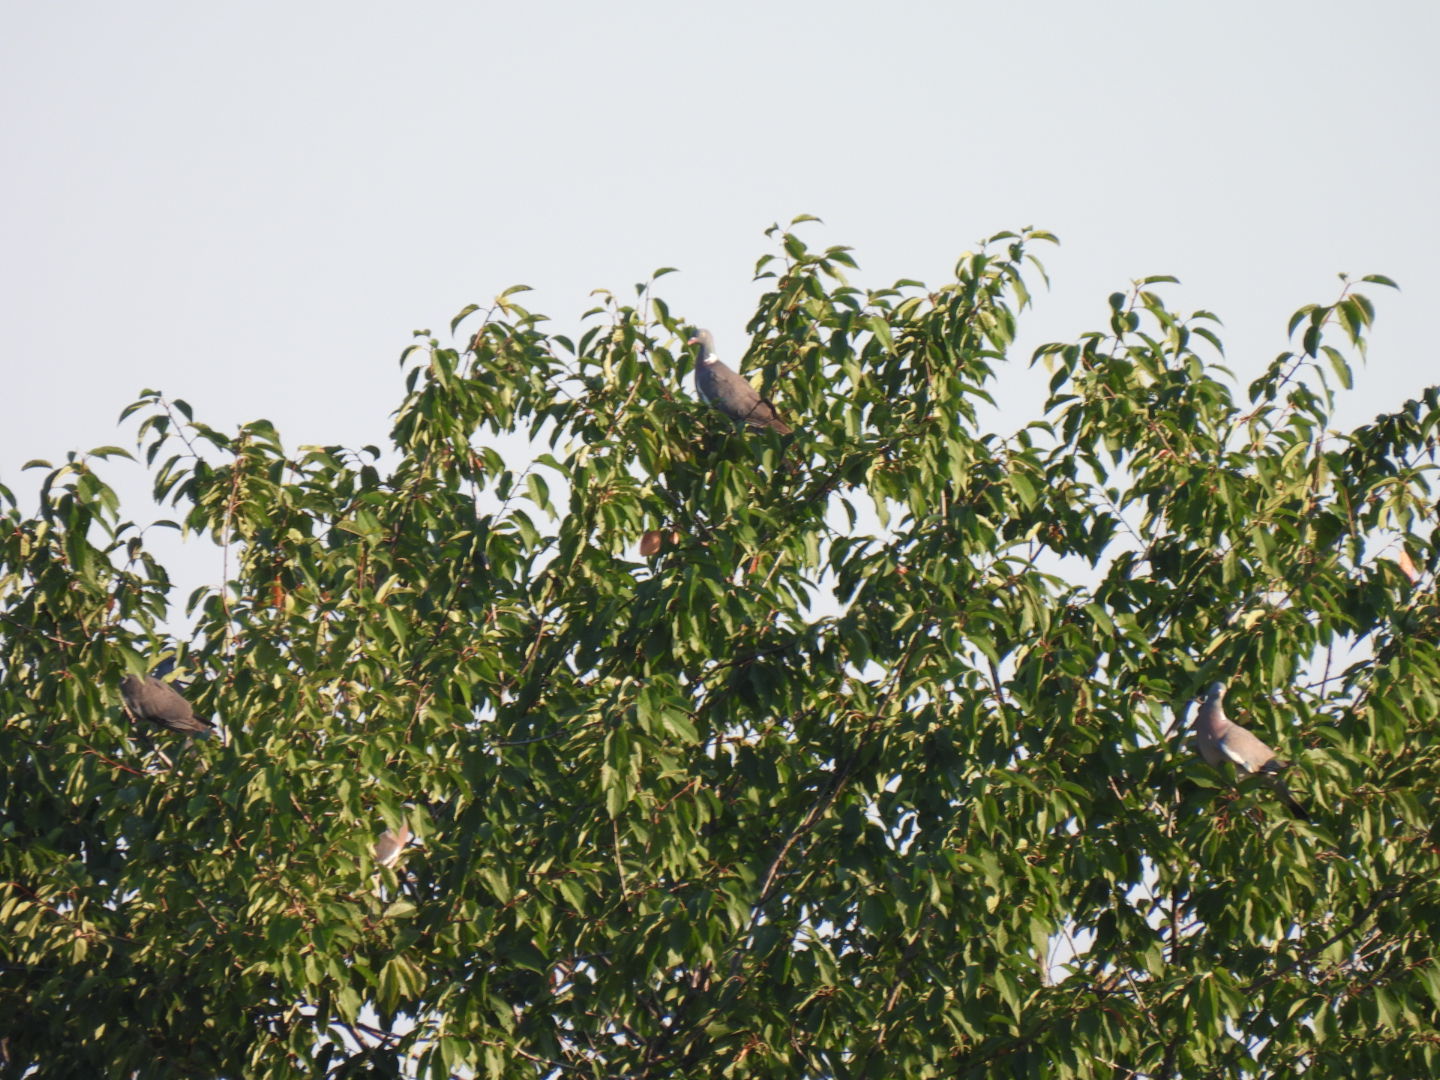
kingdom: Animalia
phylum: Chordata
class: Aves
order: Columbiformes
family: Columbidae
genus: Columba
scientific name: Columba palumbus
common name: Common wood pigeon
